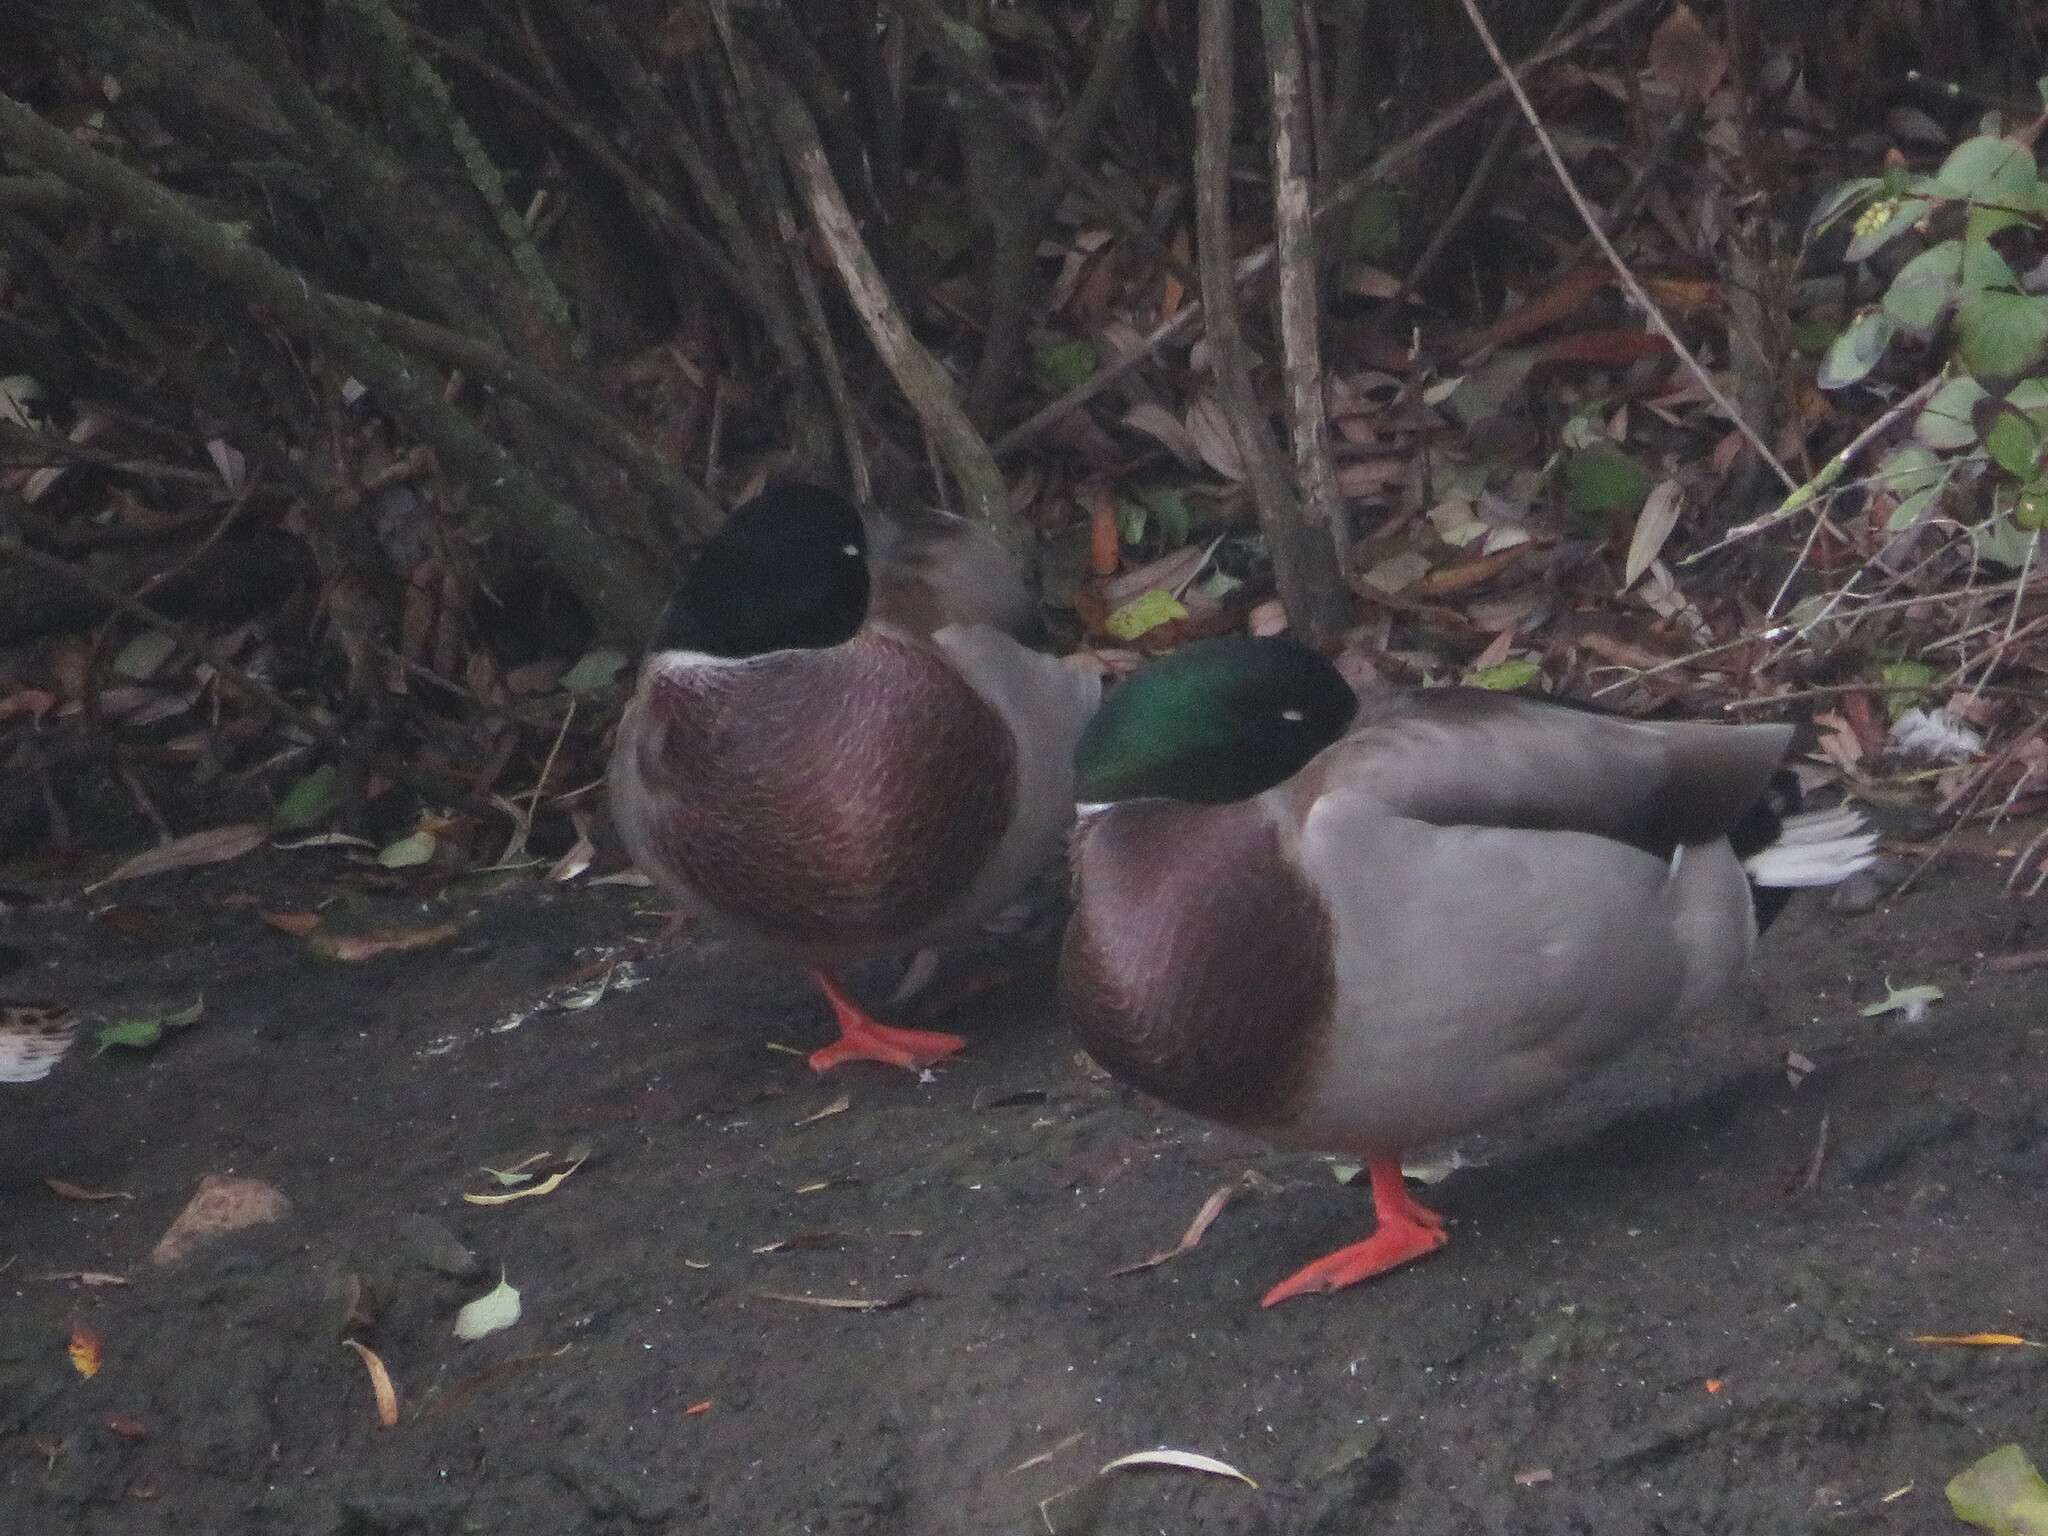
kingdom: Animalia
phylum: Chordata
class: Aves
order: Anseriformes
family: Anatidae
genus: Anas
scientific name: Anas platyrhynchos
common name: Mallard
